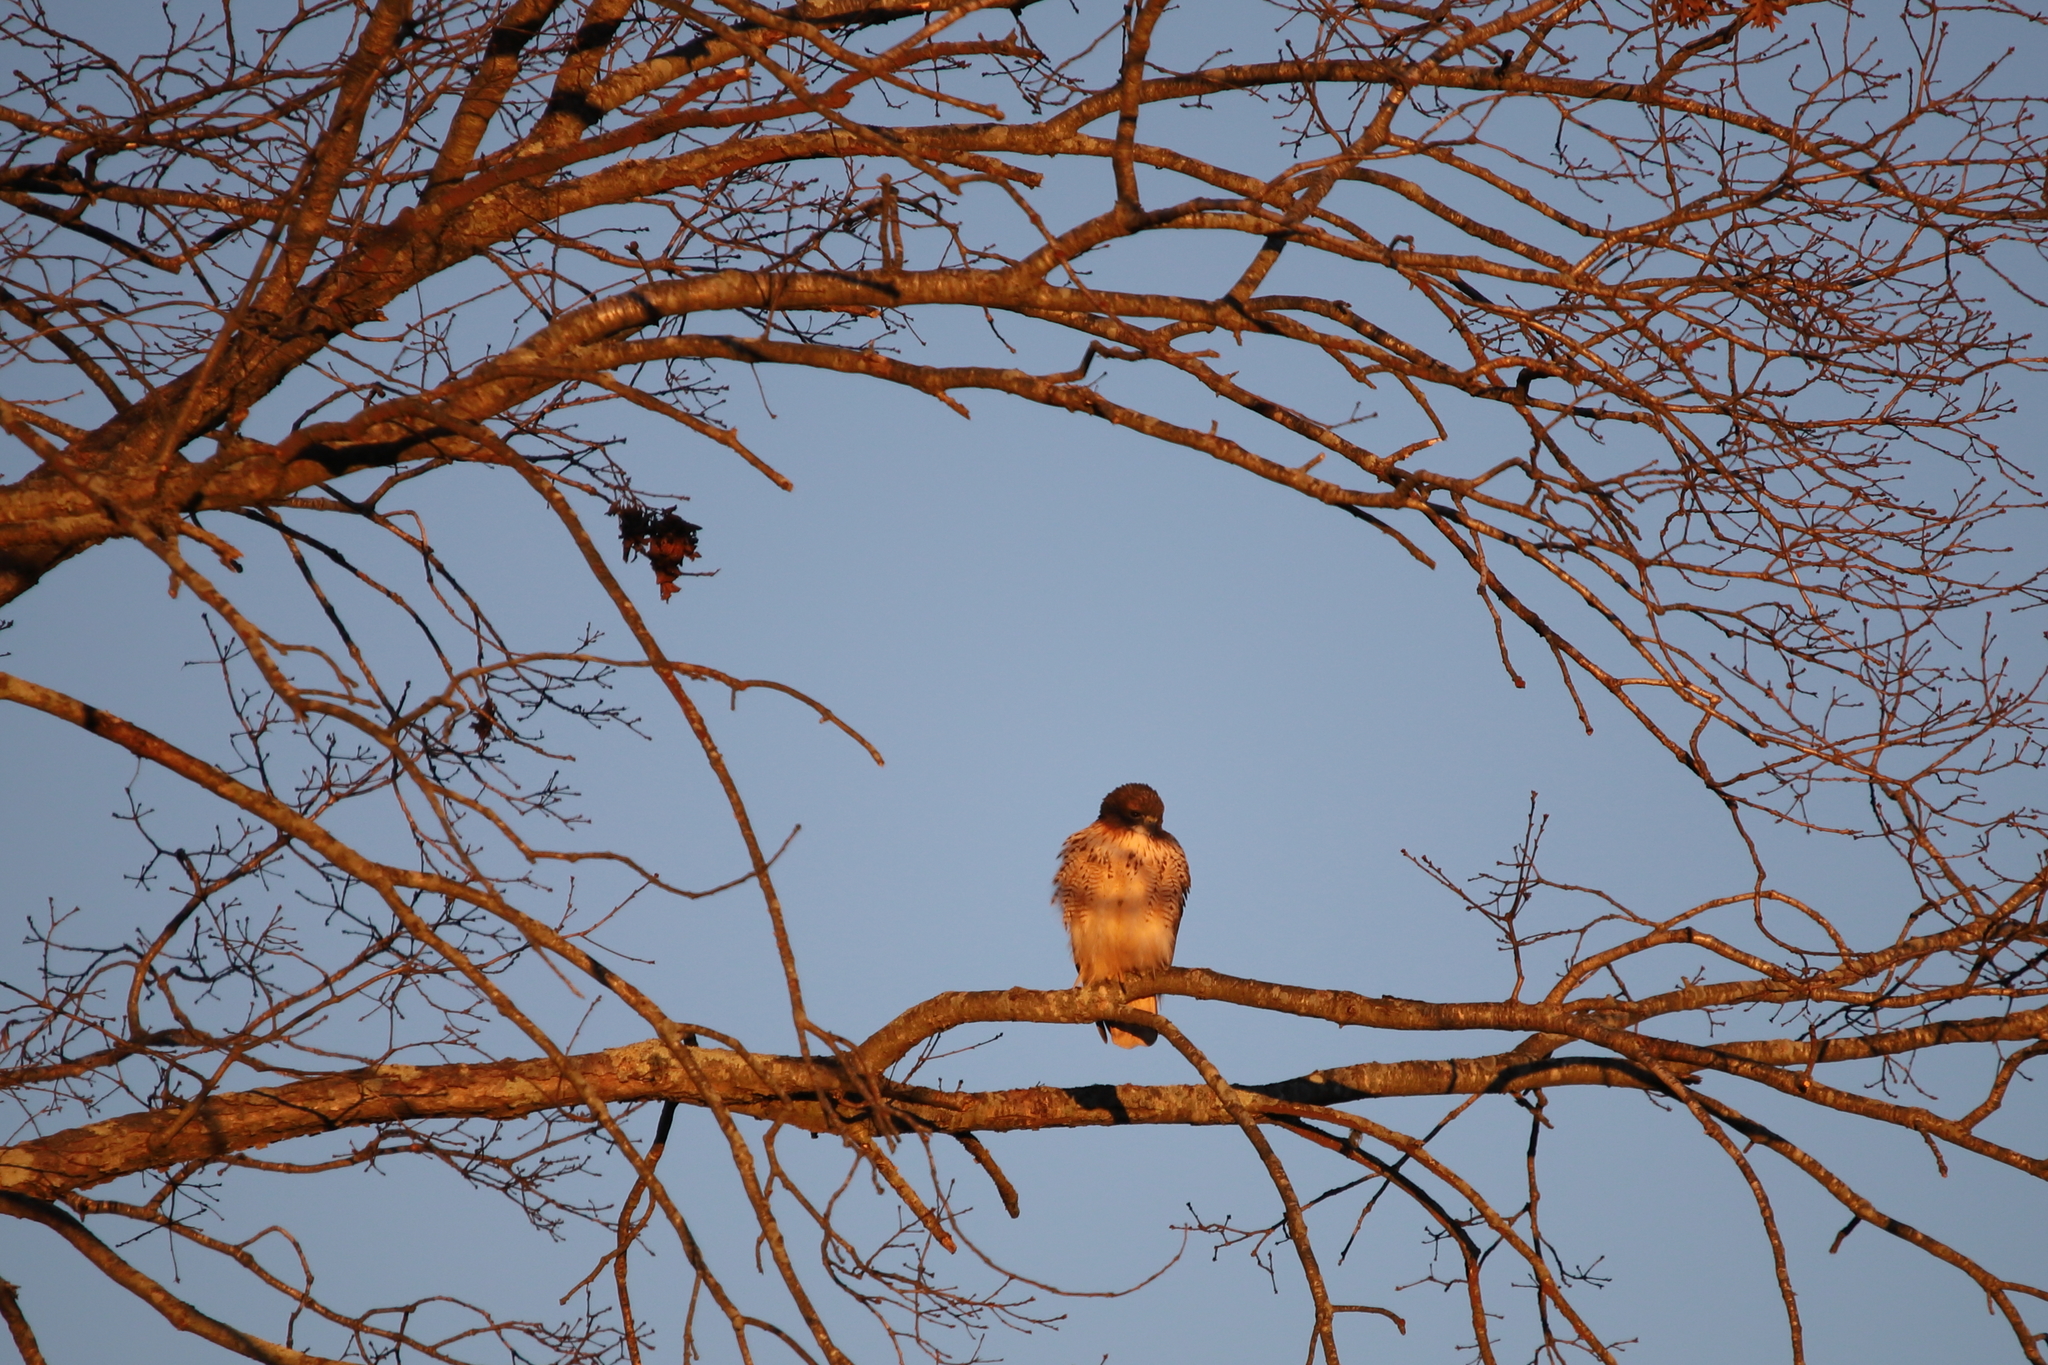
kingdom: Animalia
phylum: Chordata
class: Aves
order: Accipitriformes
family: Accipitridae
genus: Buteo
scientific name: Buteo jamaicensis
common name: Red-tailed hawk
